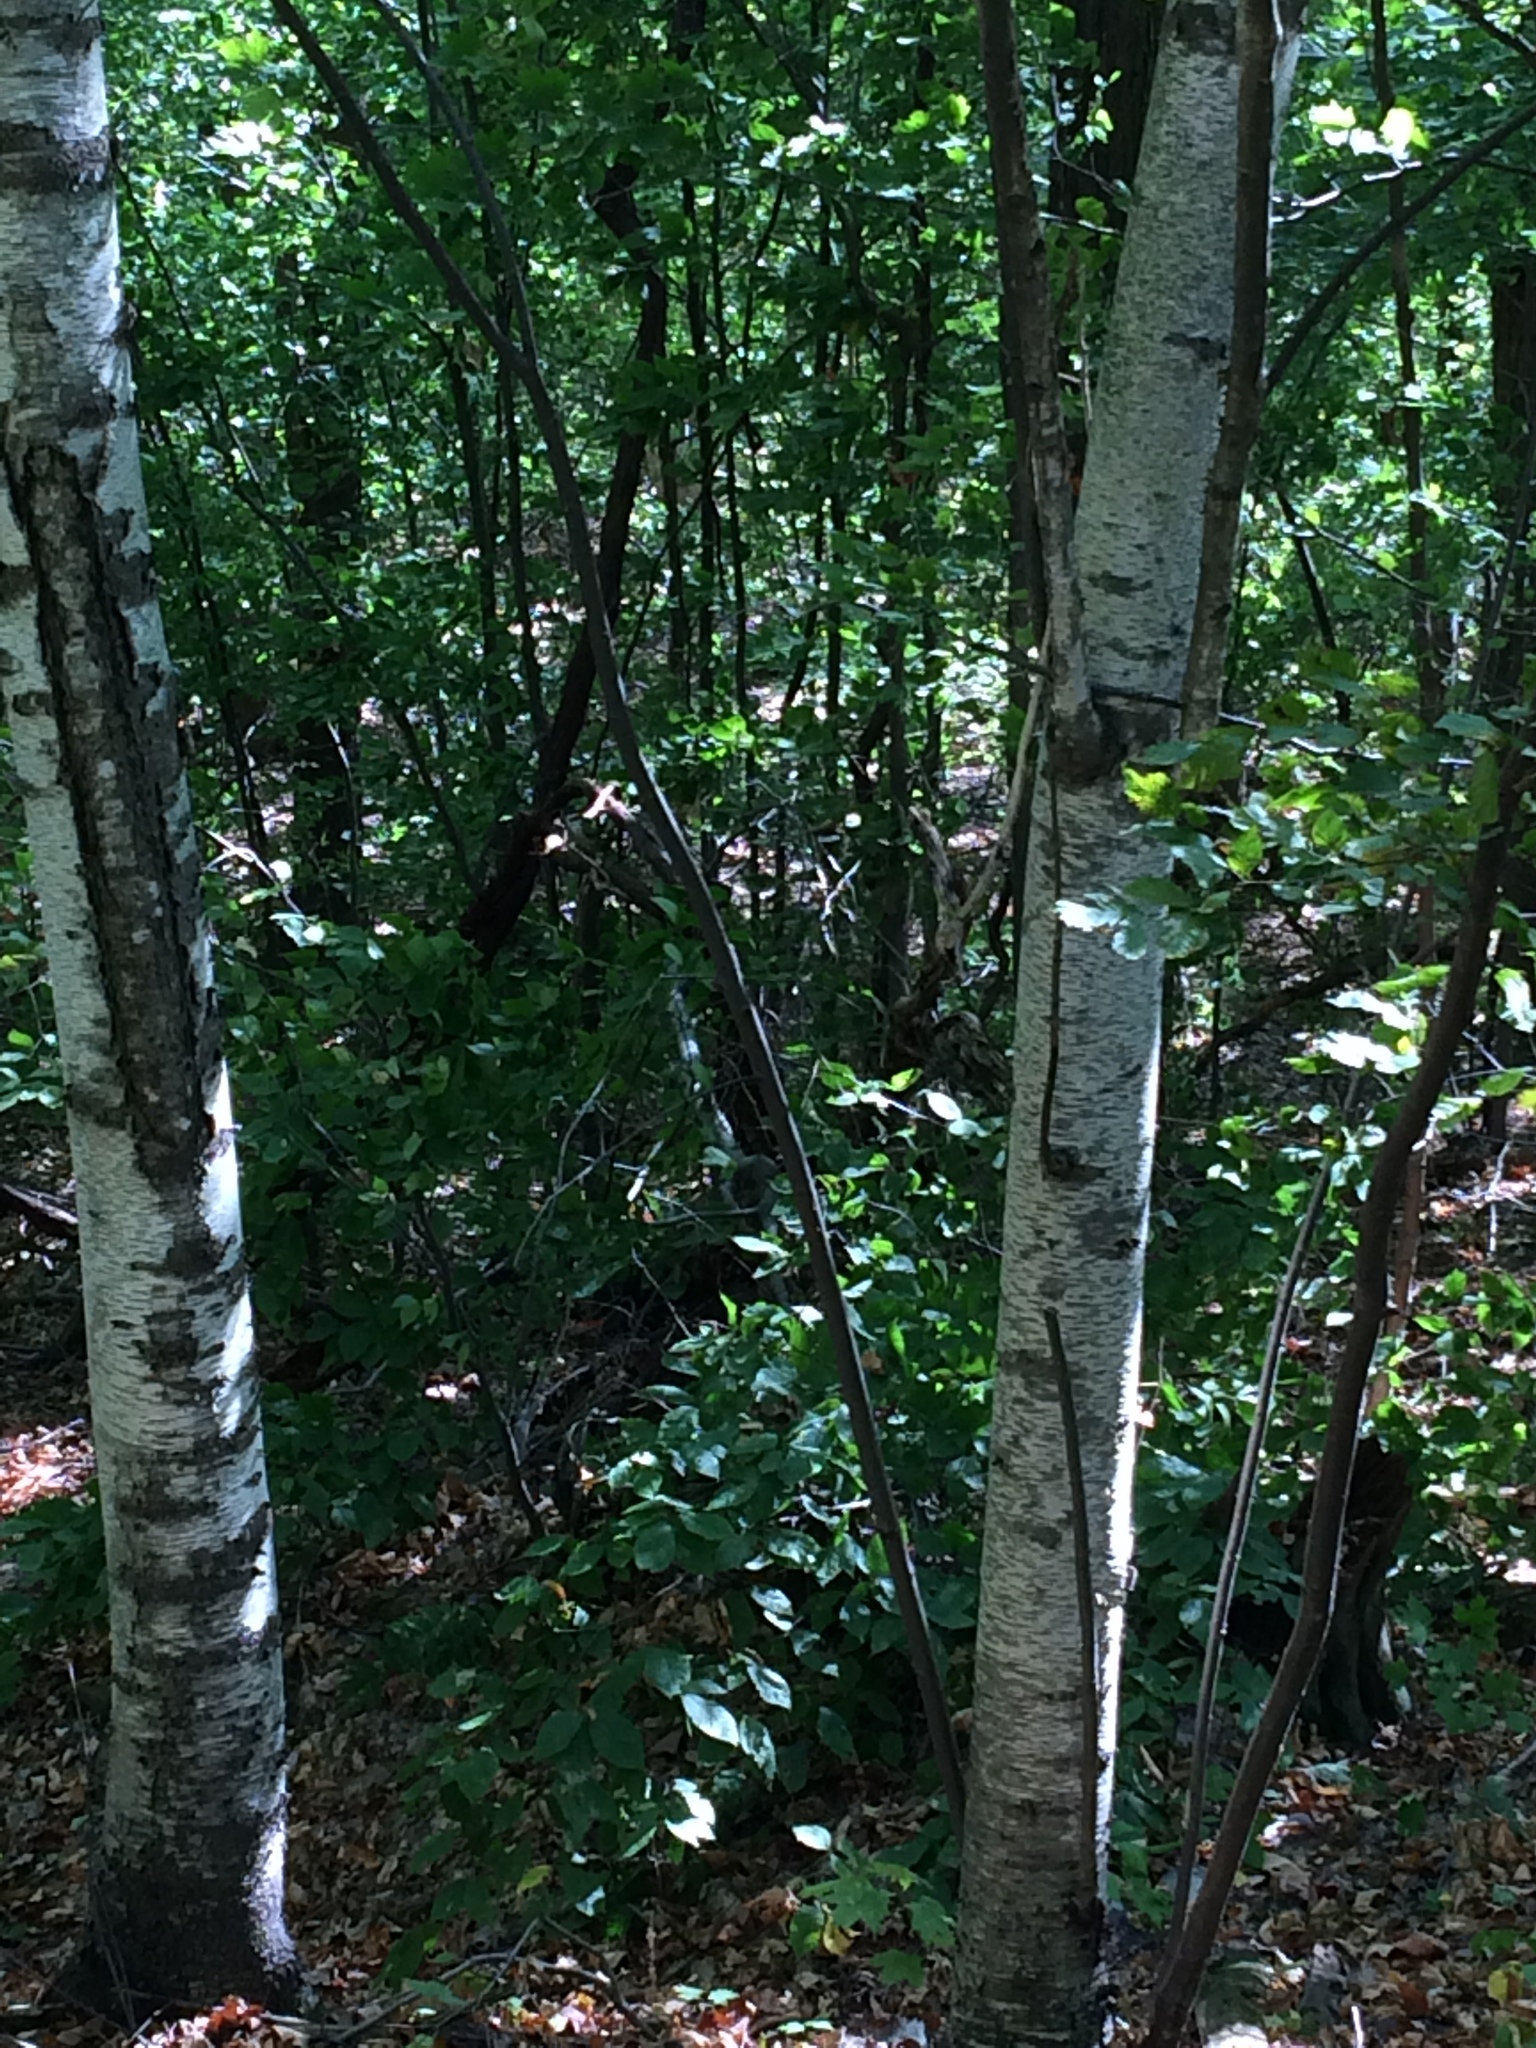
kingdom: Plantae
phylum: Tracheophyta
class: Magnoliopsida
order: Fagales
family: Betulaceae
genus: Betula
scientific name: Betula populifolia
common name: Fire birch
